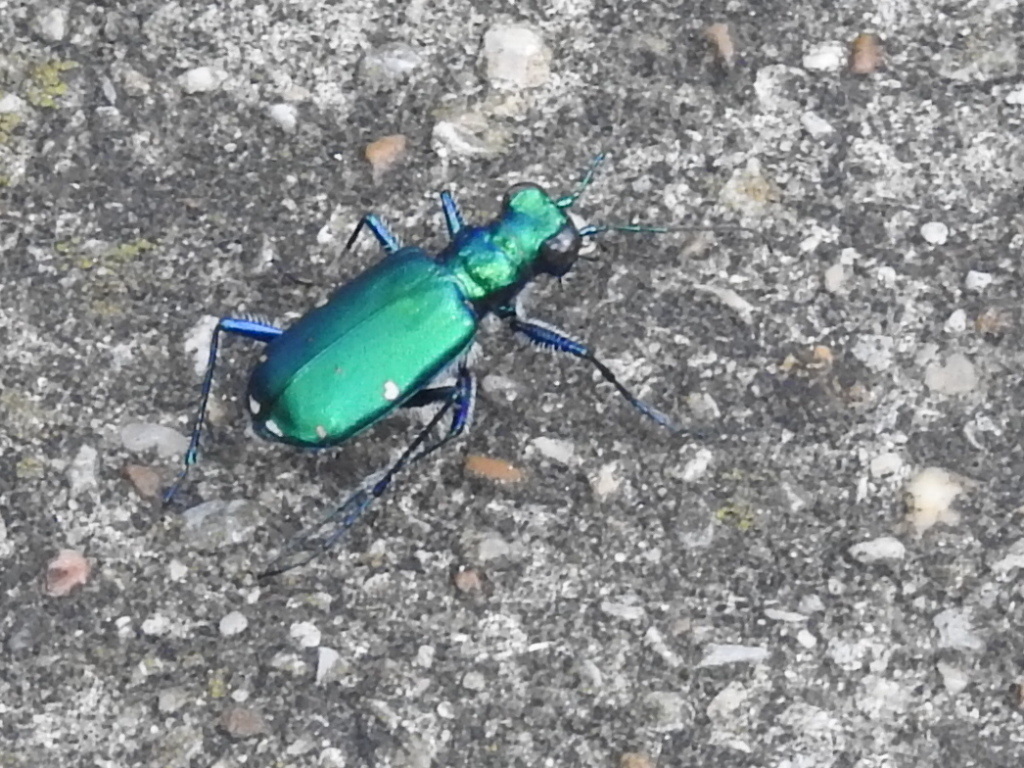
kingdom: Animalia
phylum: Arthropoda
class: Insecta
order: Coleoptera
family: Carabidae
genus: Cicindela
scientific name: Cicindela sexguttata
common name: Six-spotted tiger beetle
